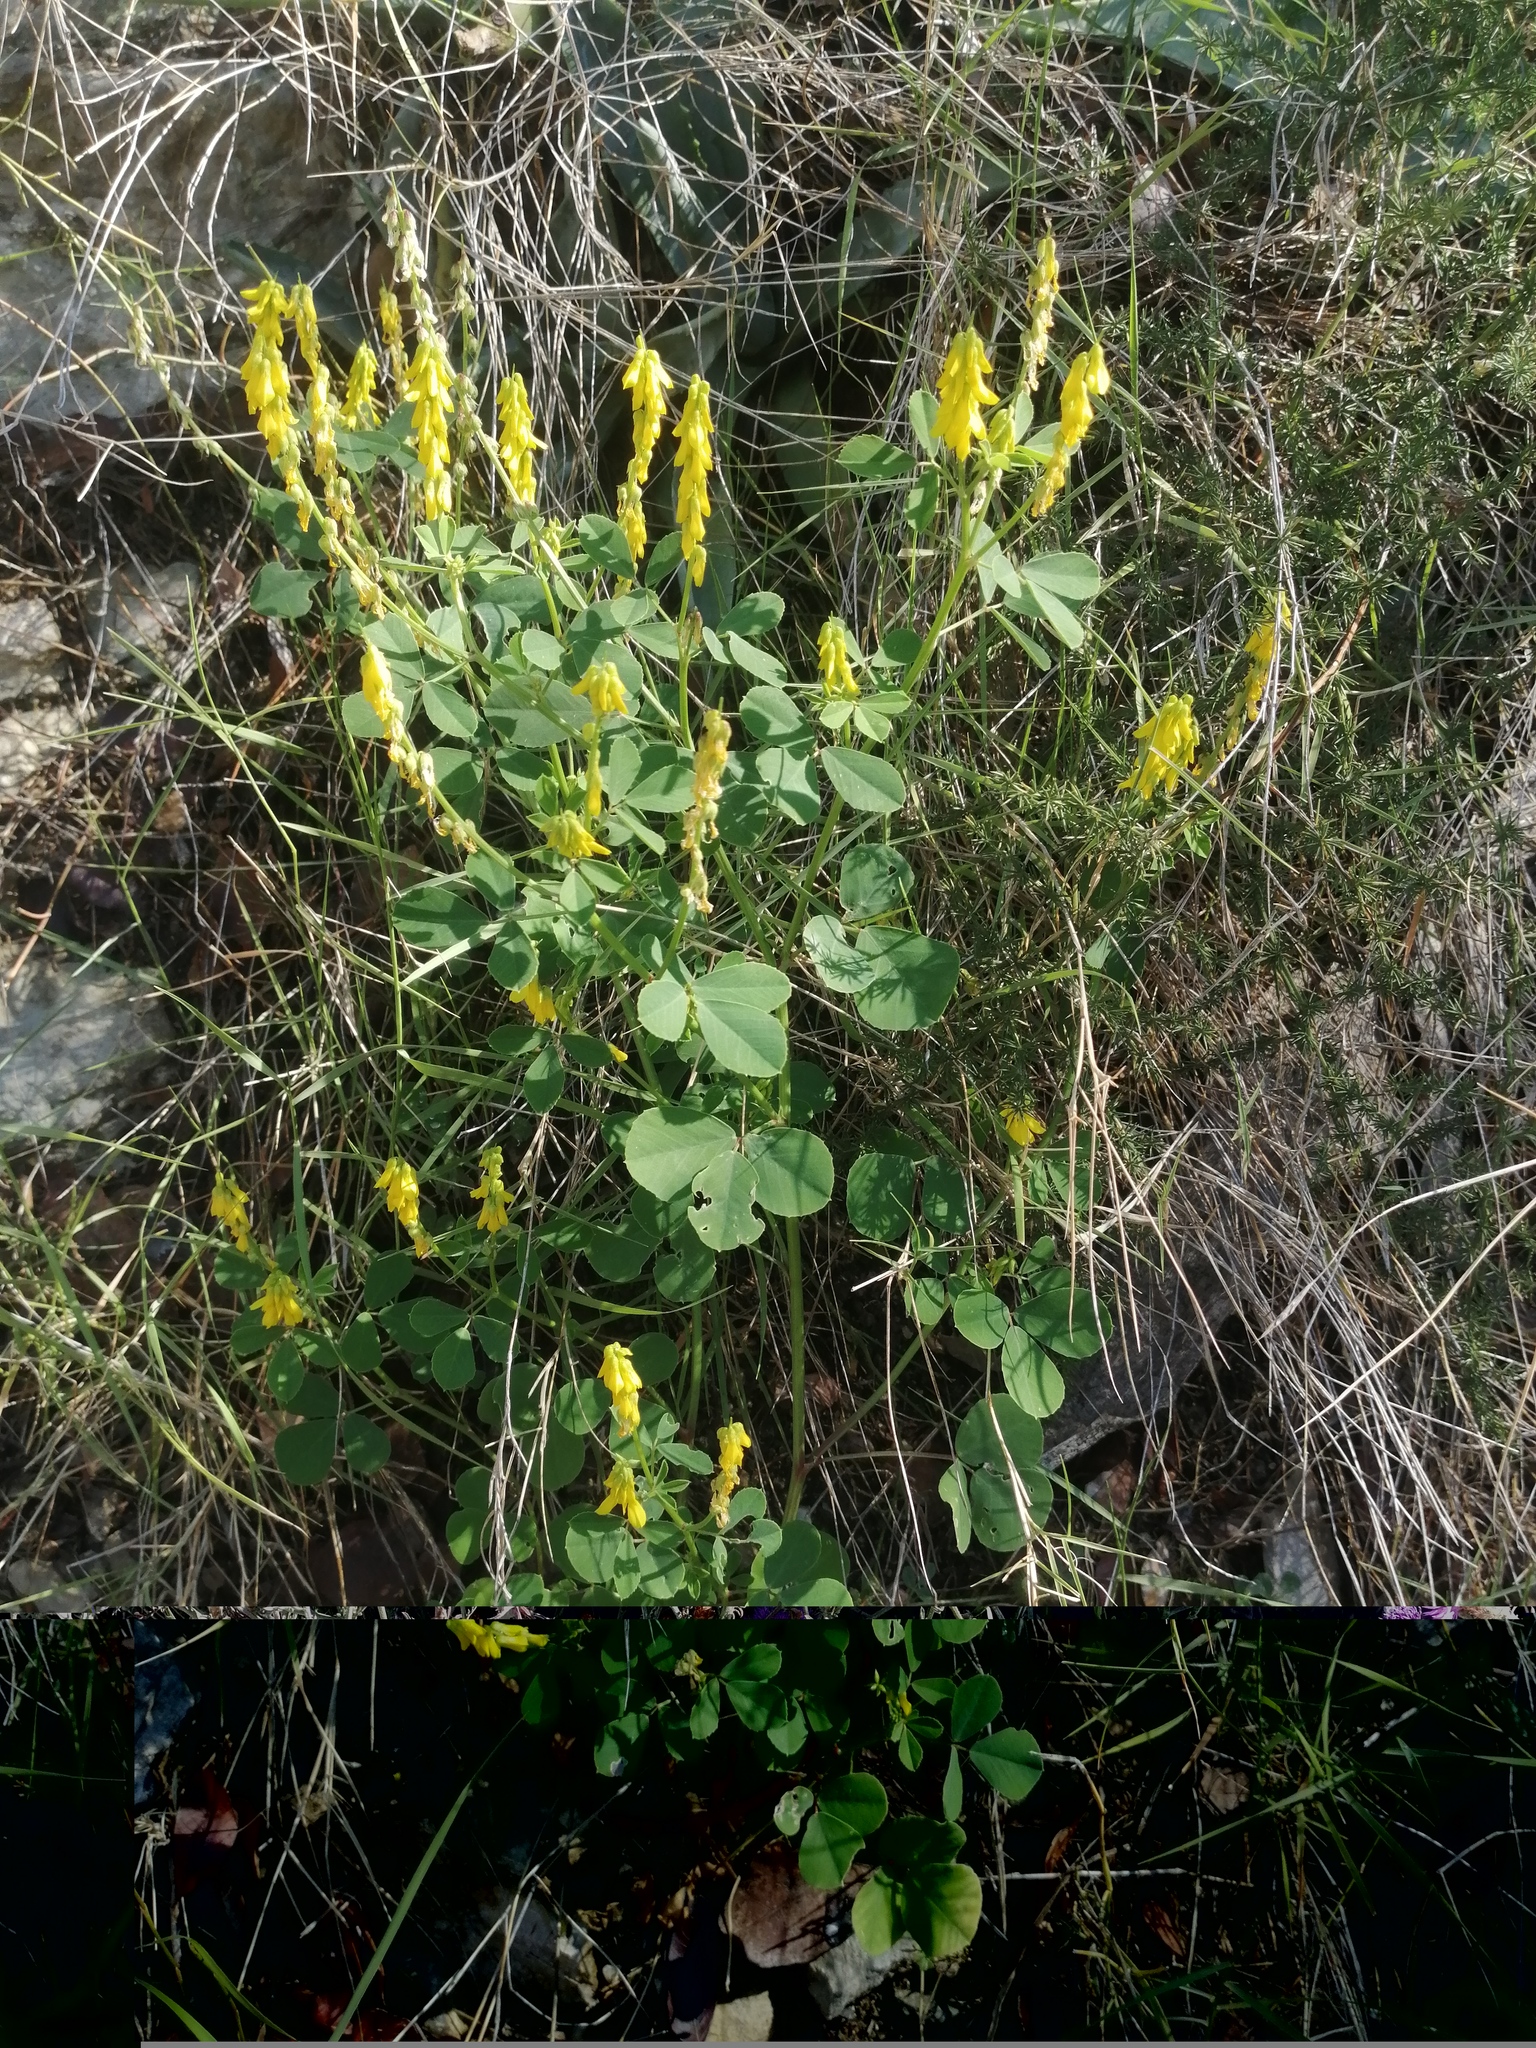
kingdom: Plantae
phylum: Tracheophyta
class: Magnoliopsida
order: Fabales
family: Fabaceae
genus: Melilotus
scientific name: Melilotus officinalis
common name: Sweetclover
